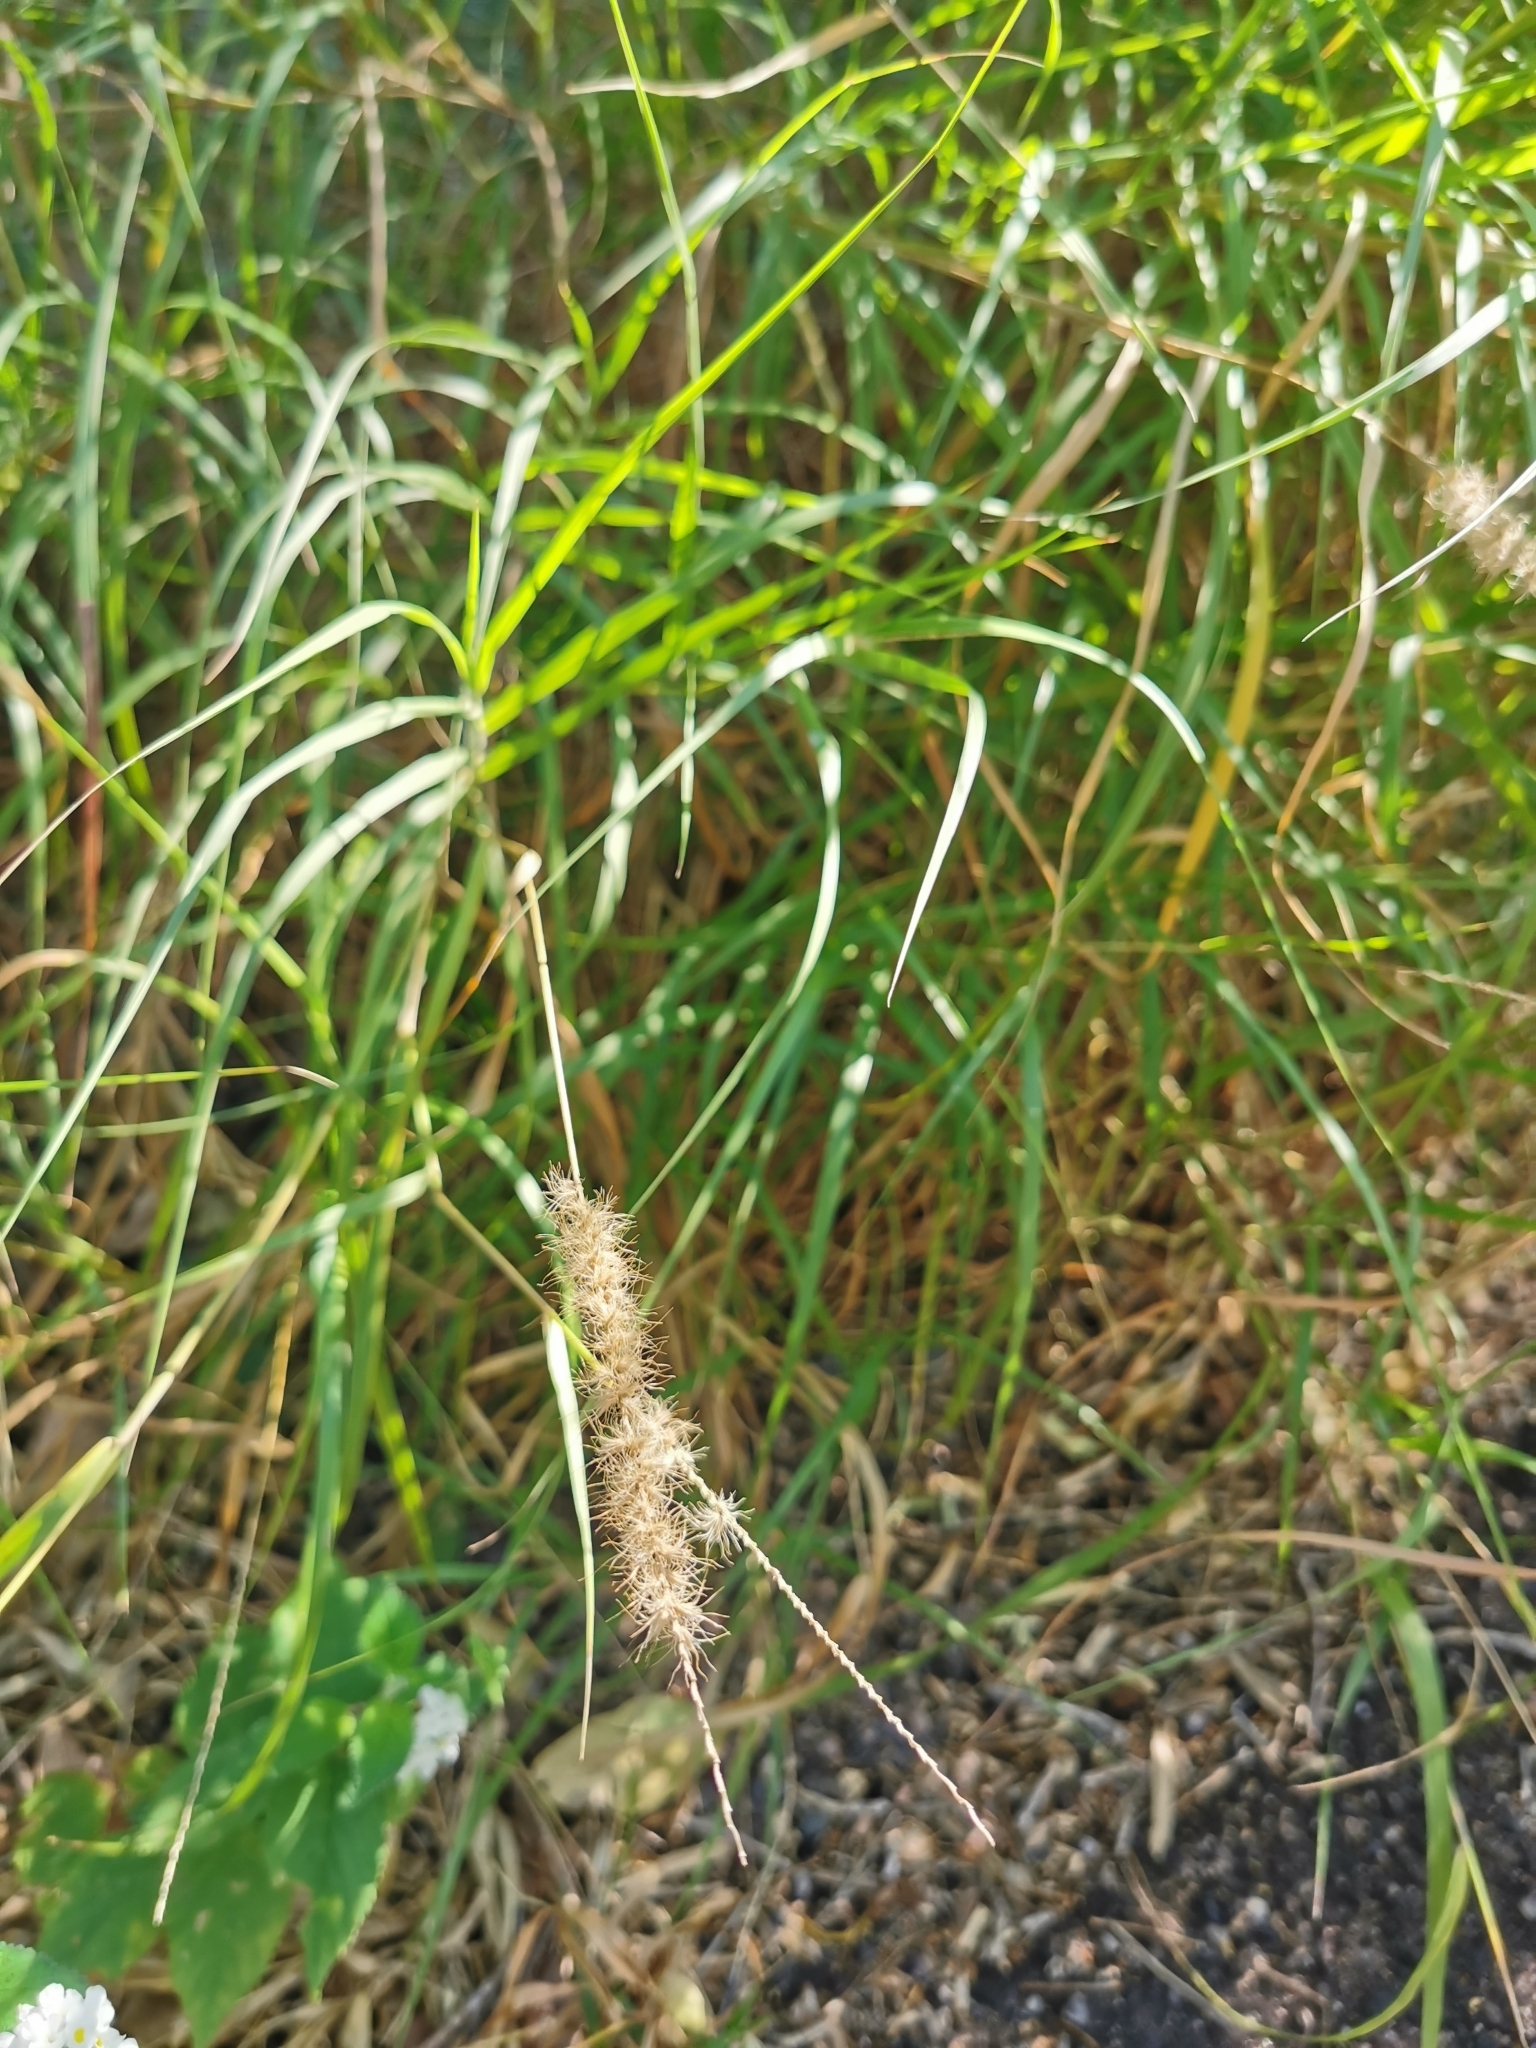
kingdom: Plantae
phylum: Tracheophyta
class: Liliopsida
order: Poales
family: Poaceae
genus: Cenchrus
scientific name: Cenchrus ciliaris
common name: Buffelgrass
